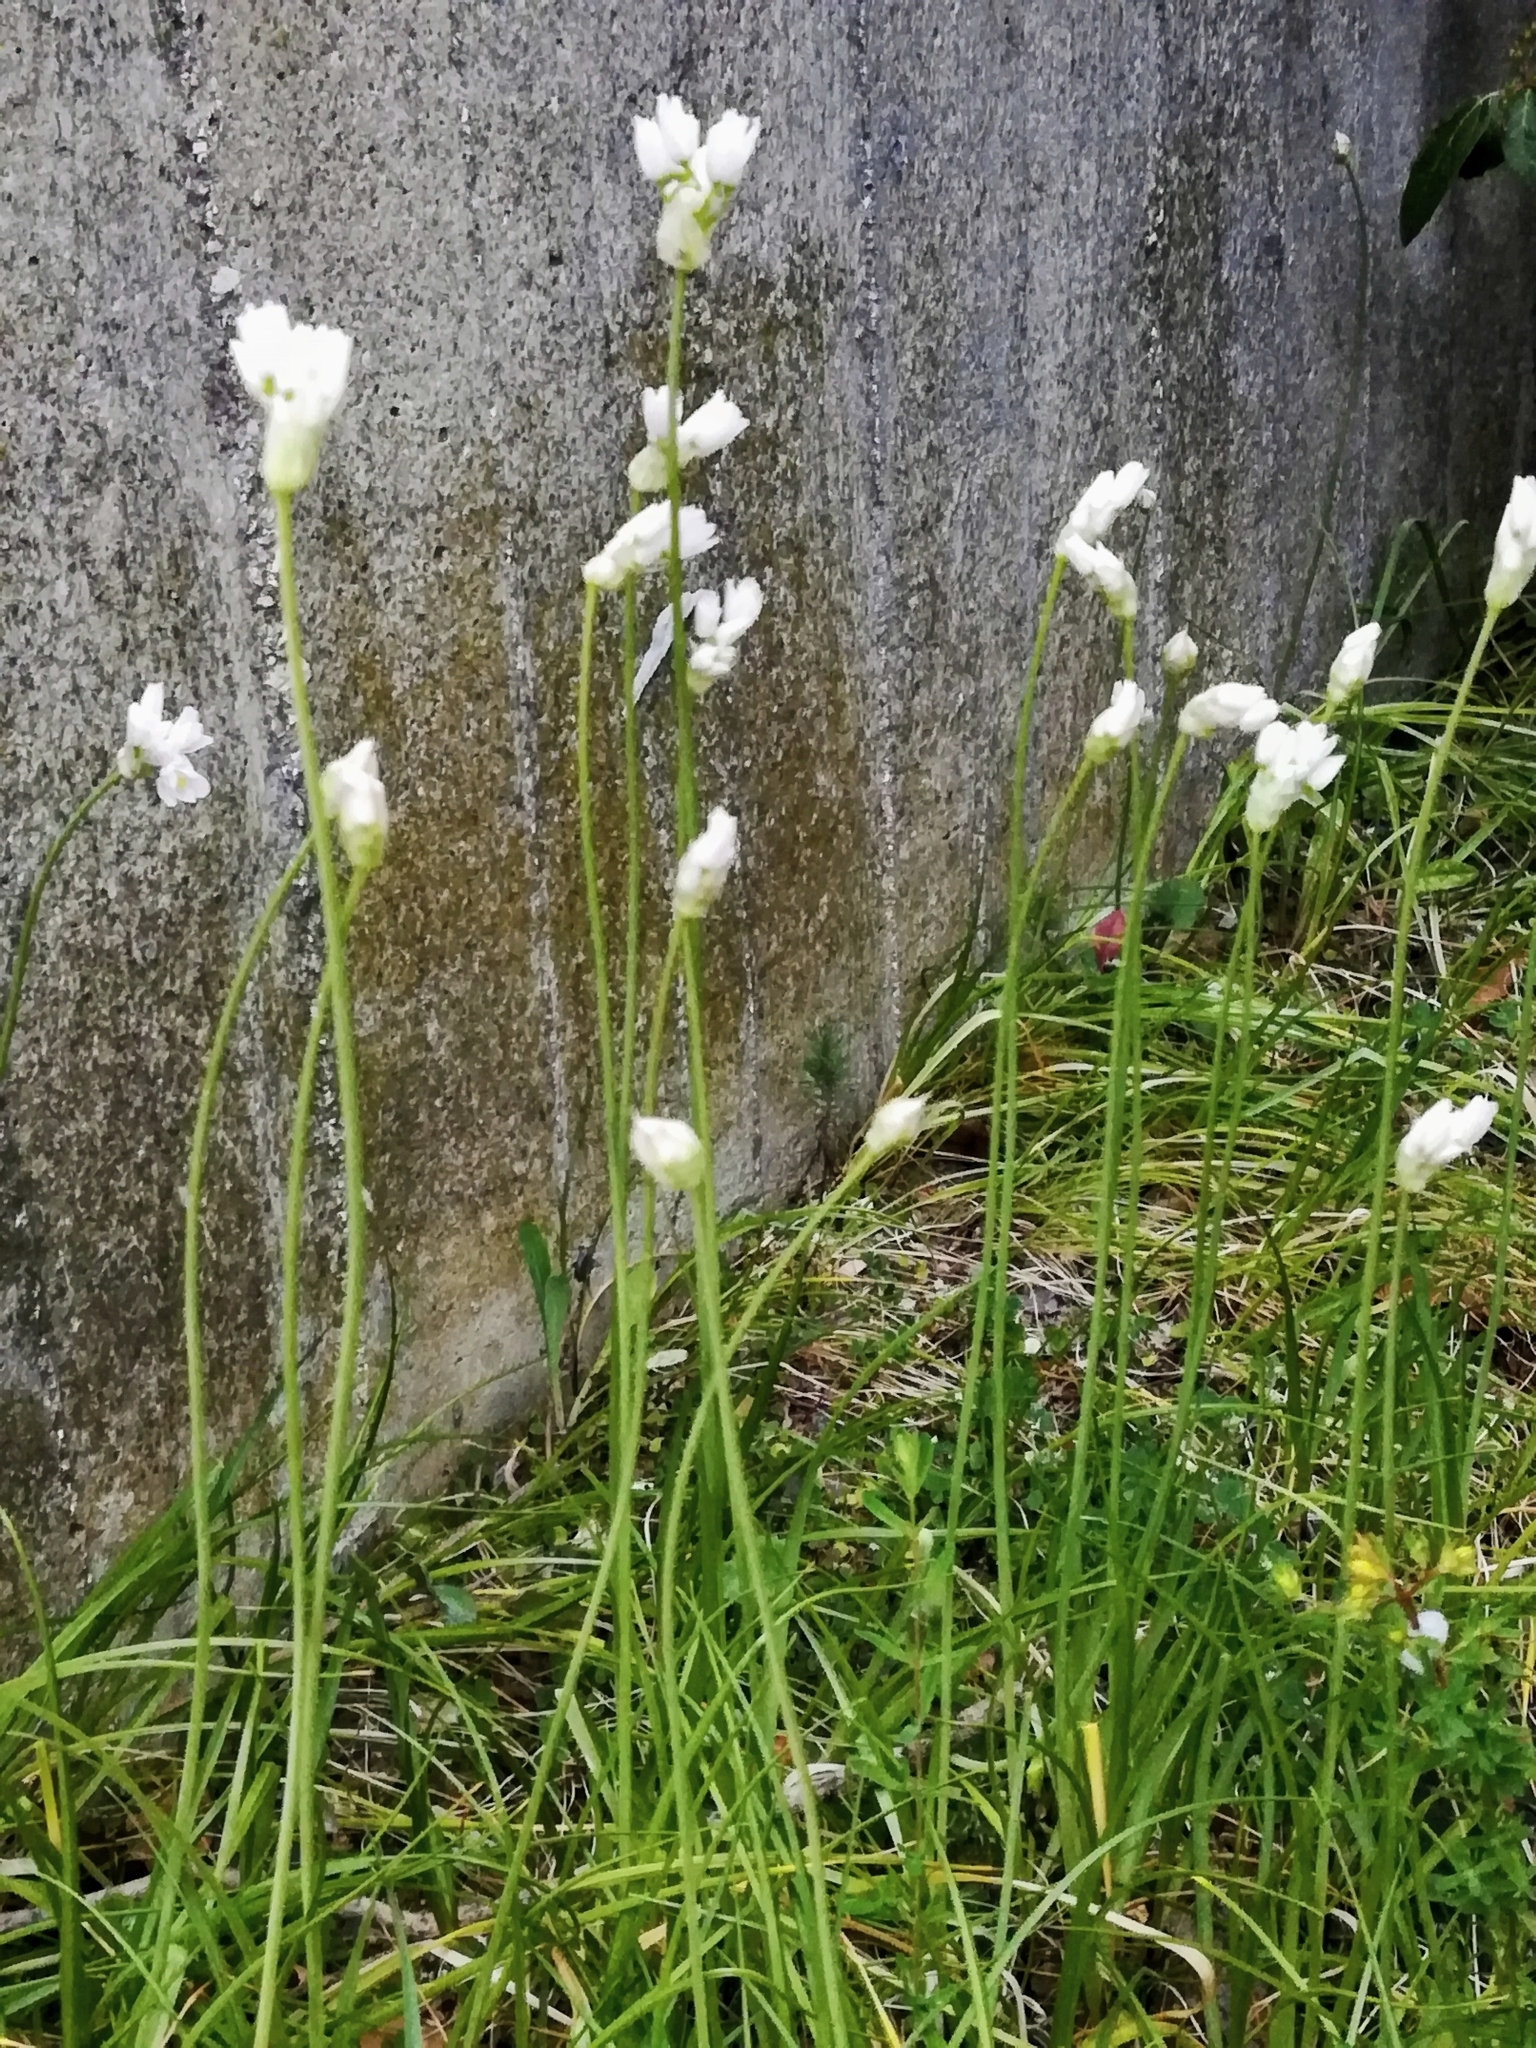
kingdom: Plantae
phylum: Tracheophyta
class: Liliopsida
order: Asparagales
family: Amaryllidaceae
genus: Allium
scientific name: Allium roseum
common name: Rosy garlic
